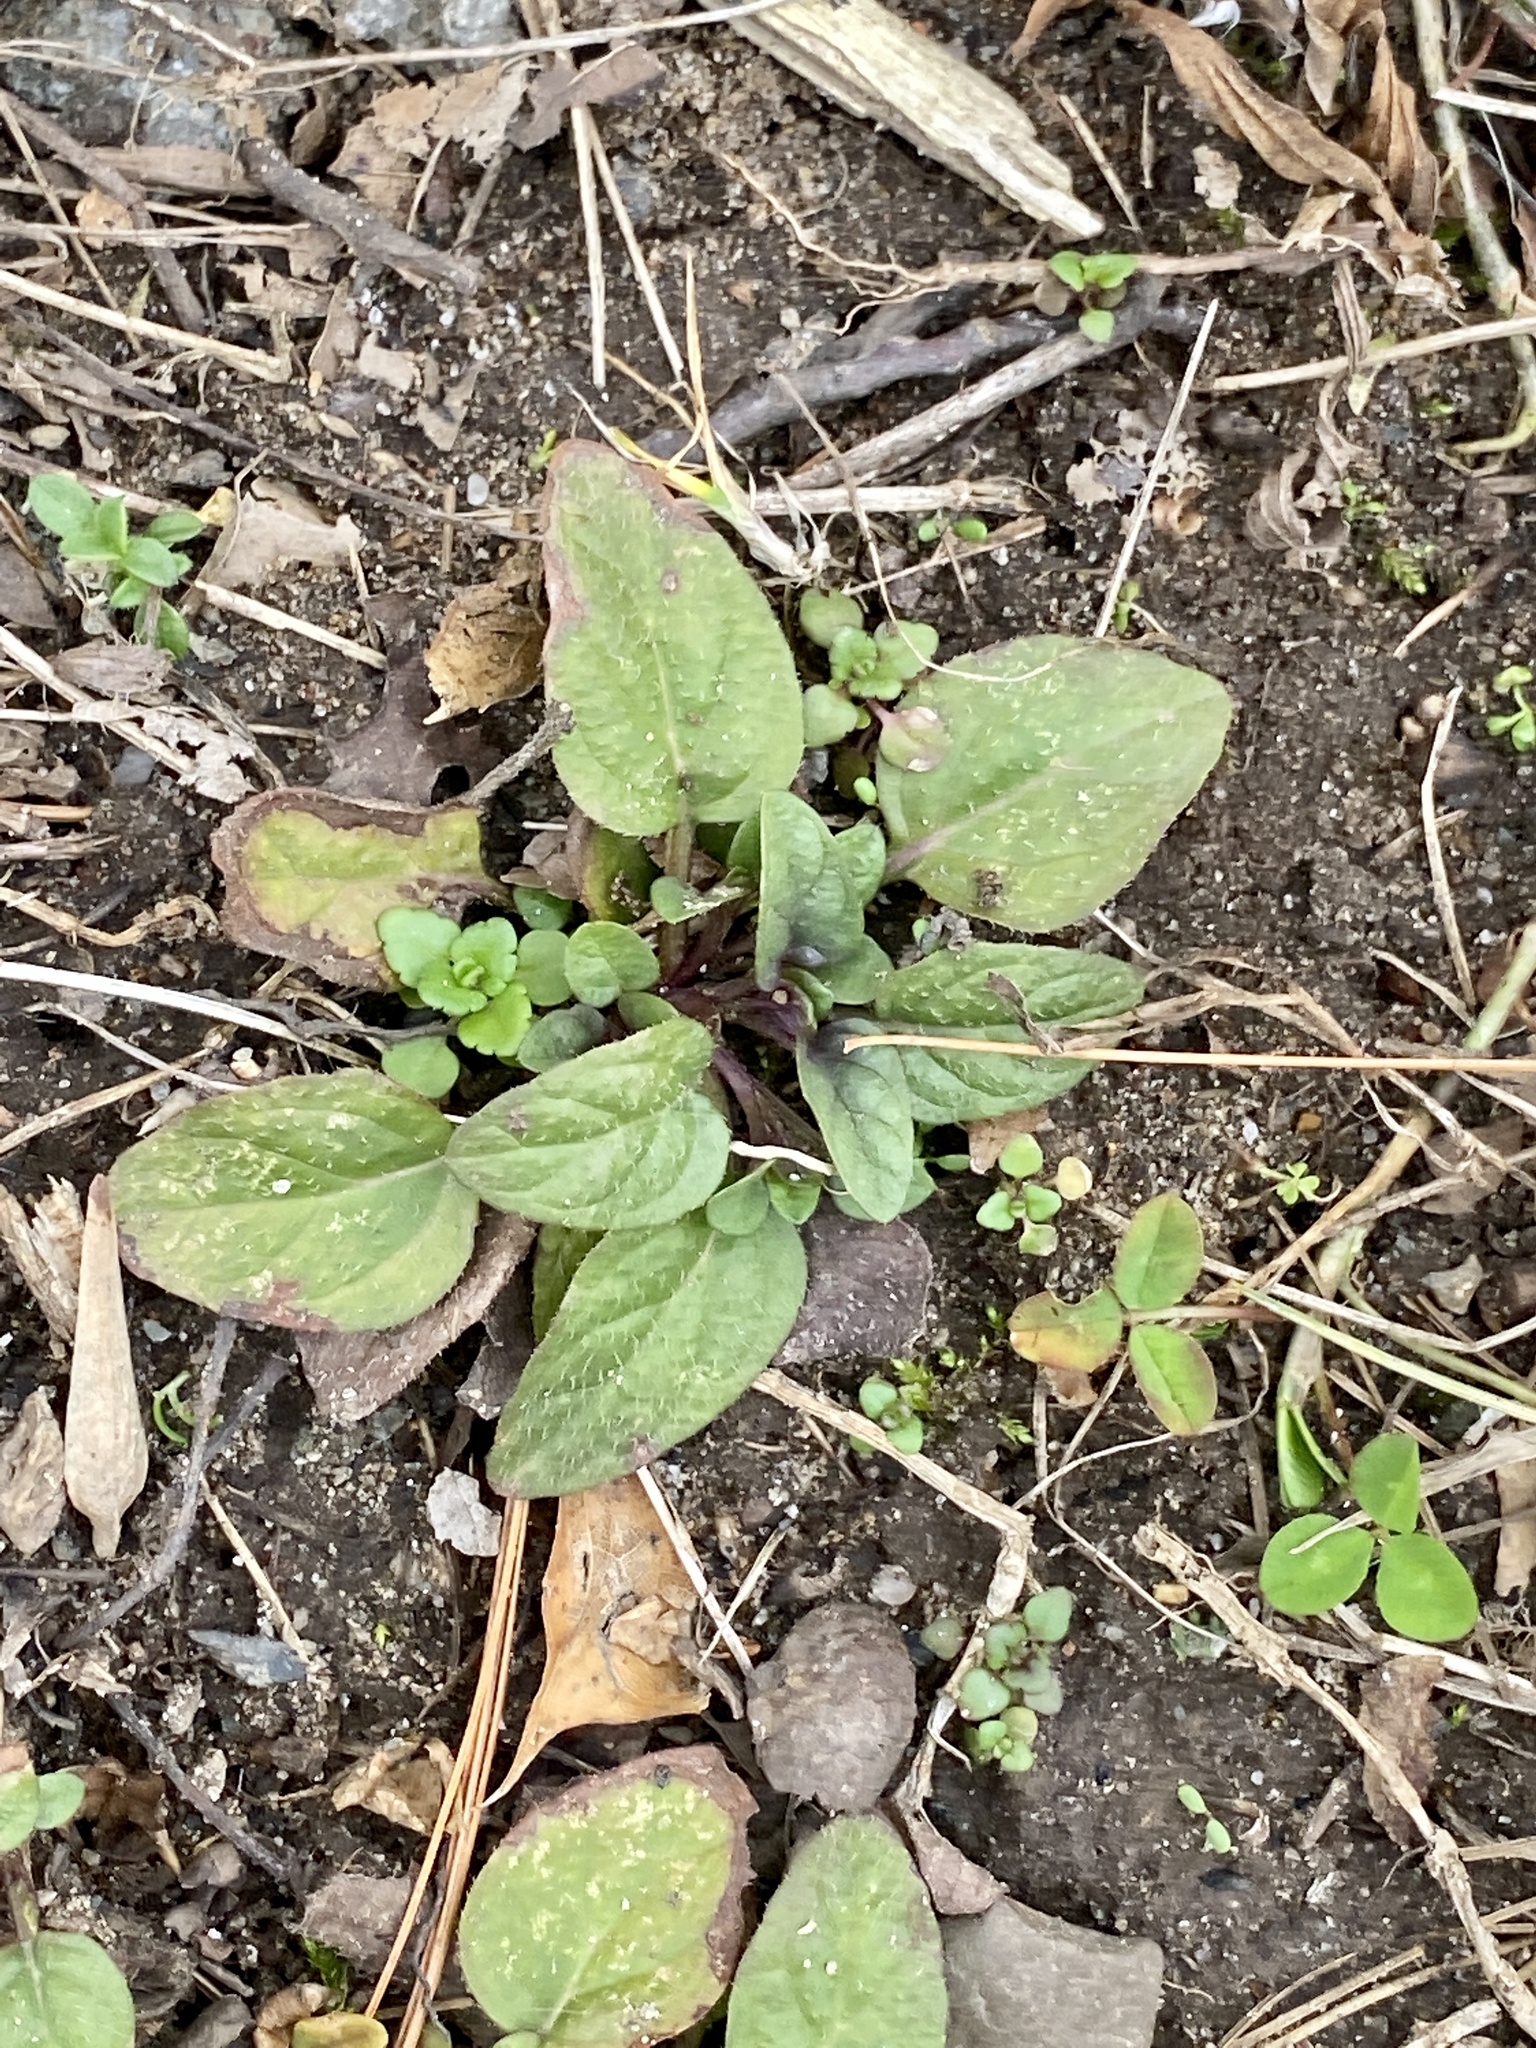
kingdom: Plantae
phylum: Tracheophyta
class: Magnoliopsida
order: Lamiales
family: Lamiaceae
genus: Prunella
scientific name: Prunella vulgaris
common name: Heal-all
